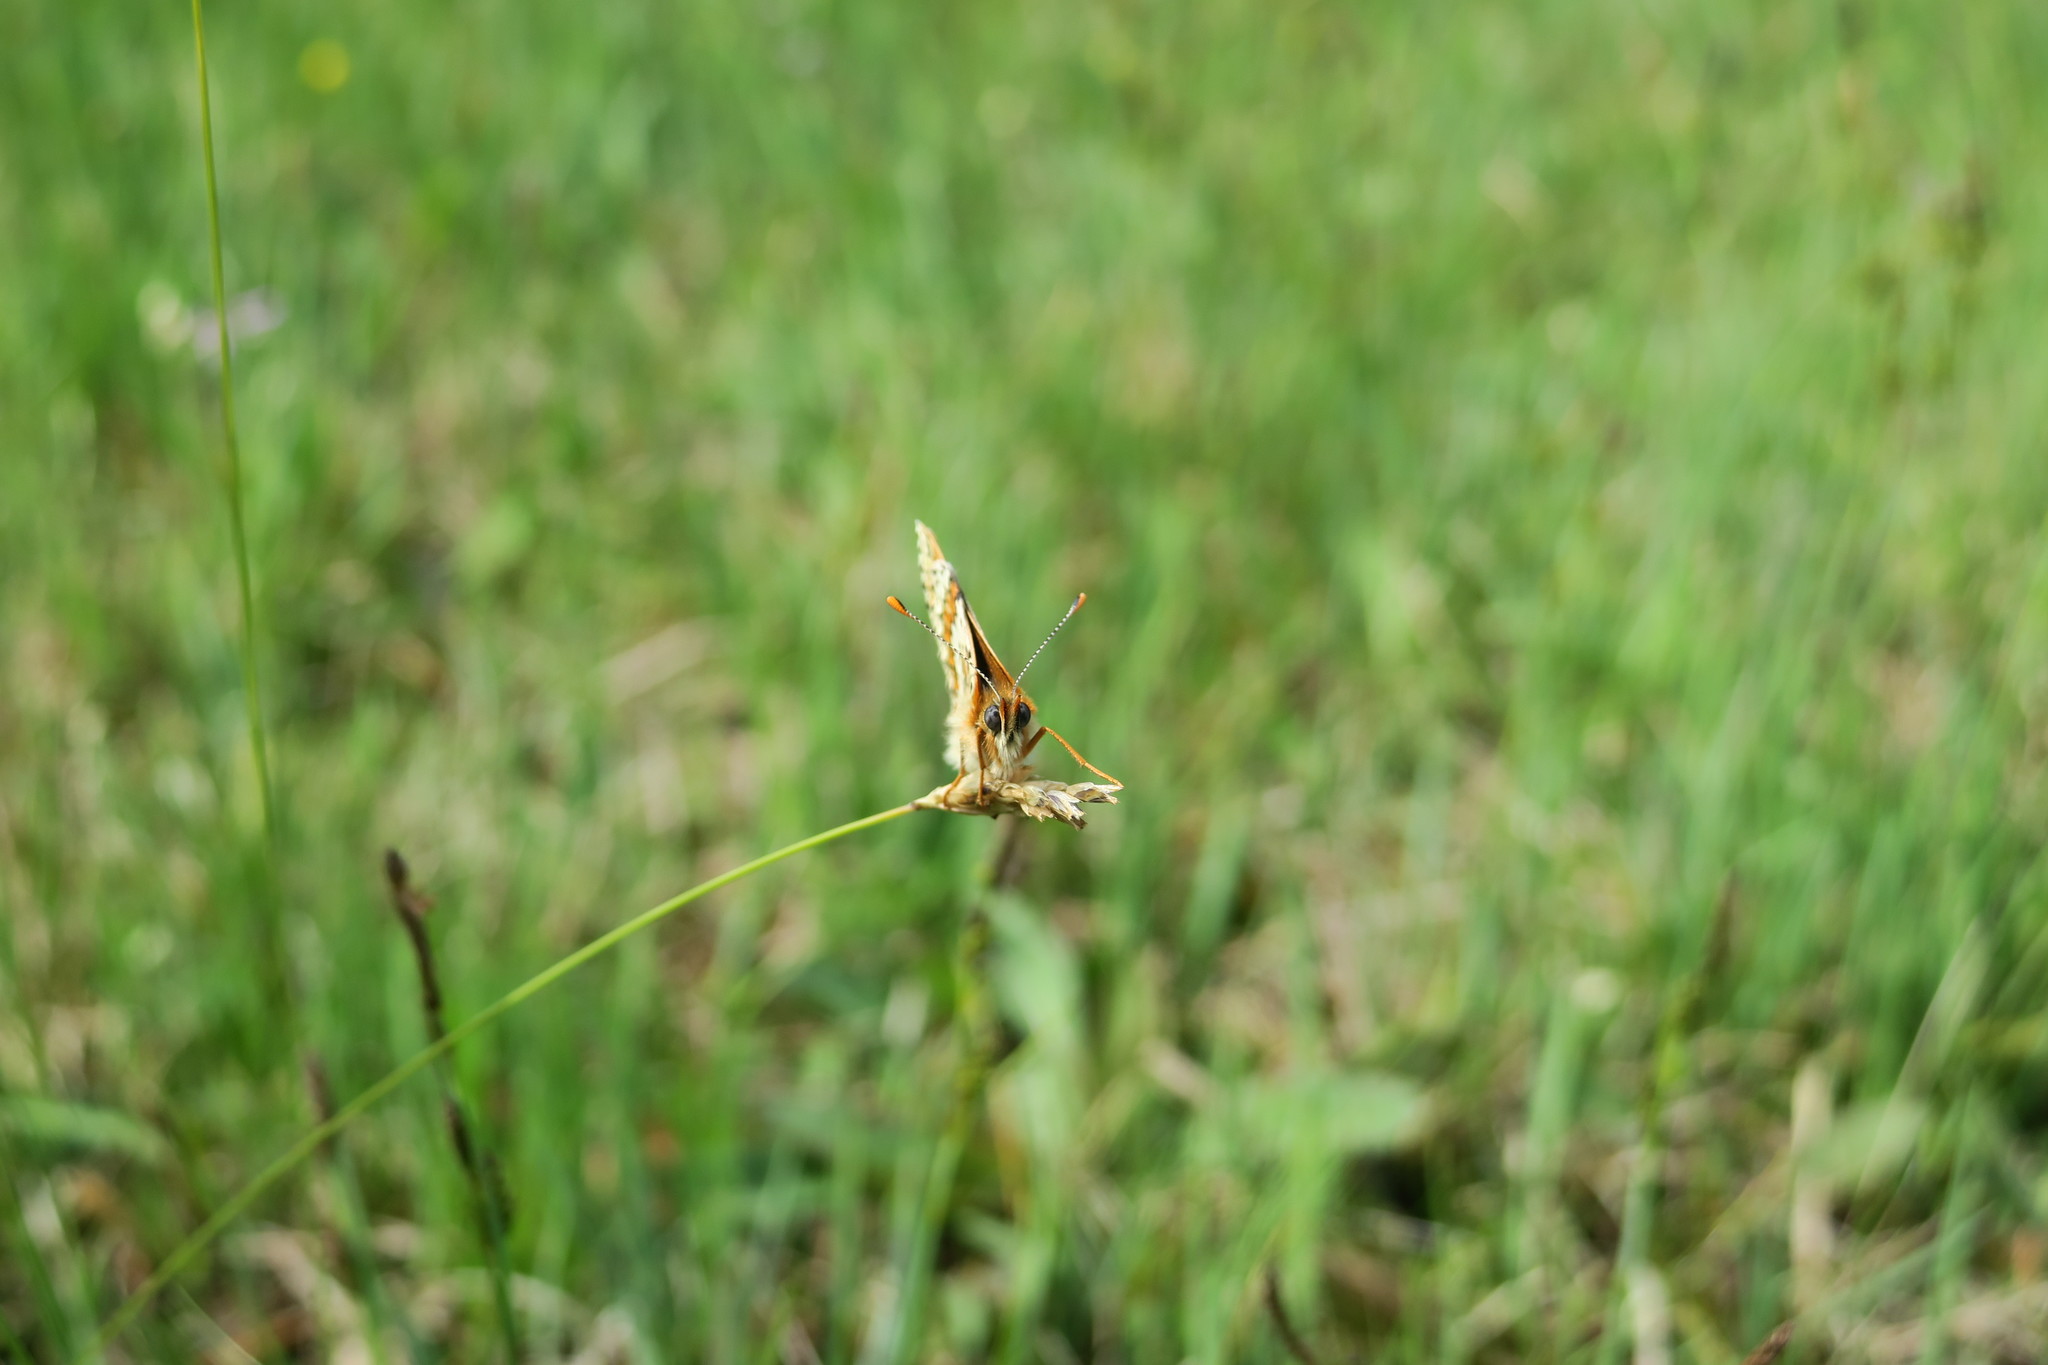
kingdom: Animalia
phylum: Arthropoda
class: Insecta
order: Lepidoptera
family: Nymphalidae
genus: Melitaea
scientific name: Melitaea cinxia
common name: Glanville fritillary
